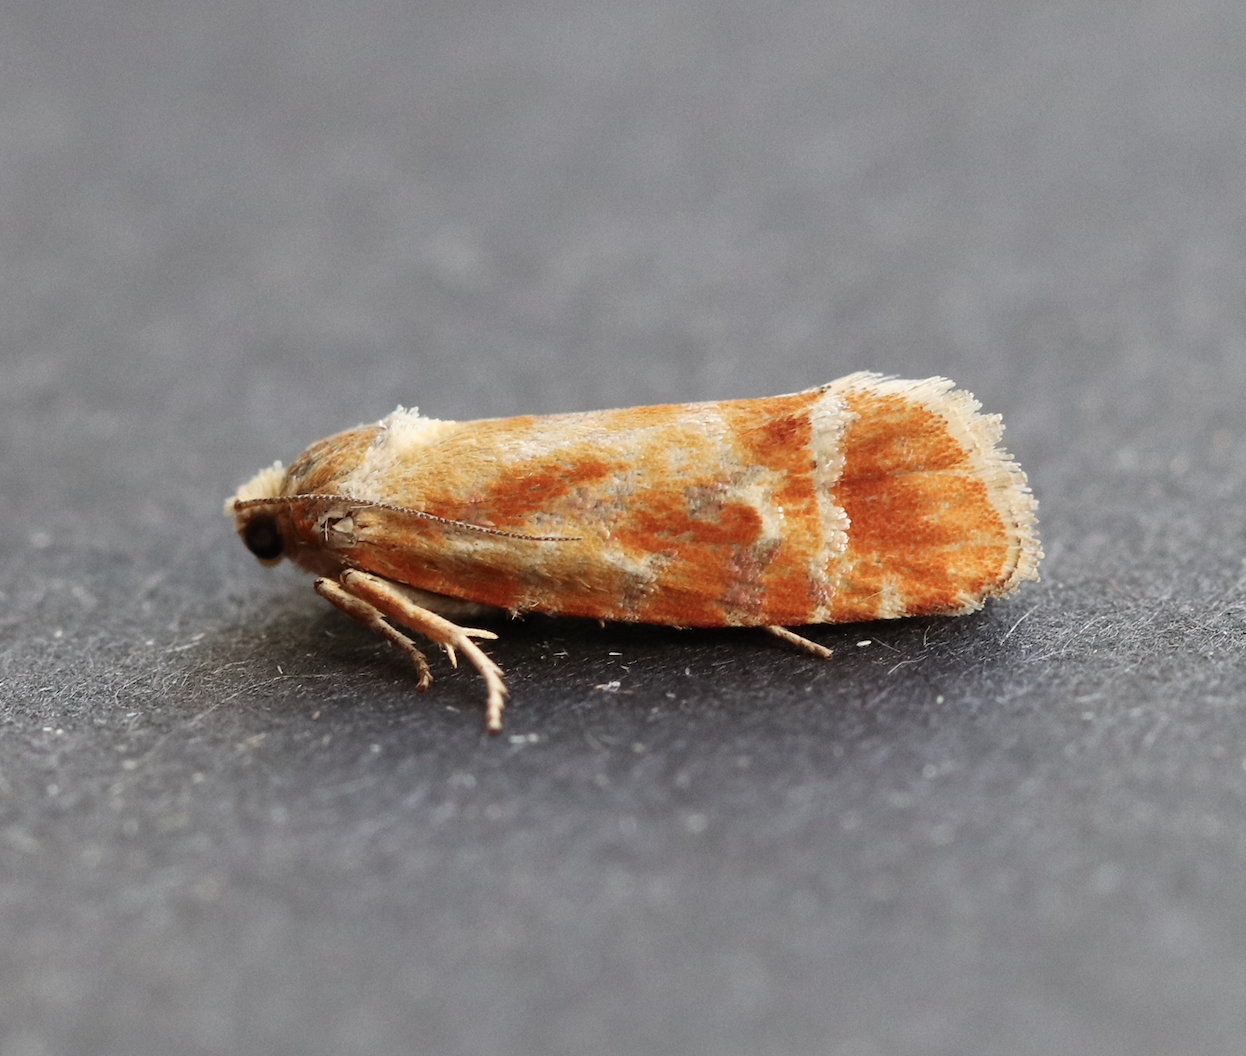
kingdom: Animalia
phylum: Arthropoda
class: Insecta
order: Lepidoptera
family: Tortricidae
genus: Rhyacionia
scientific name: Rhyacionia buoliana
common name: European pine shoot moth
